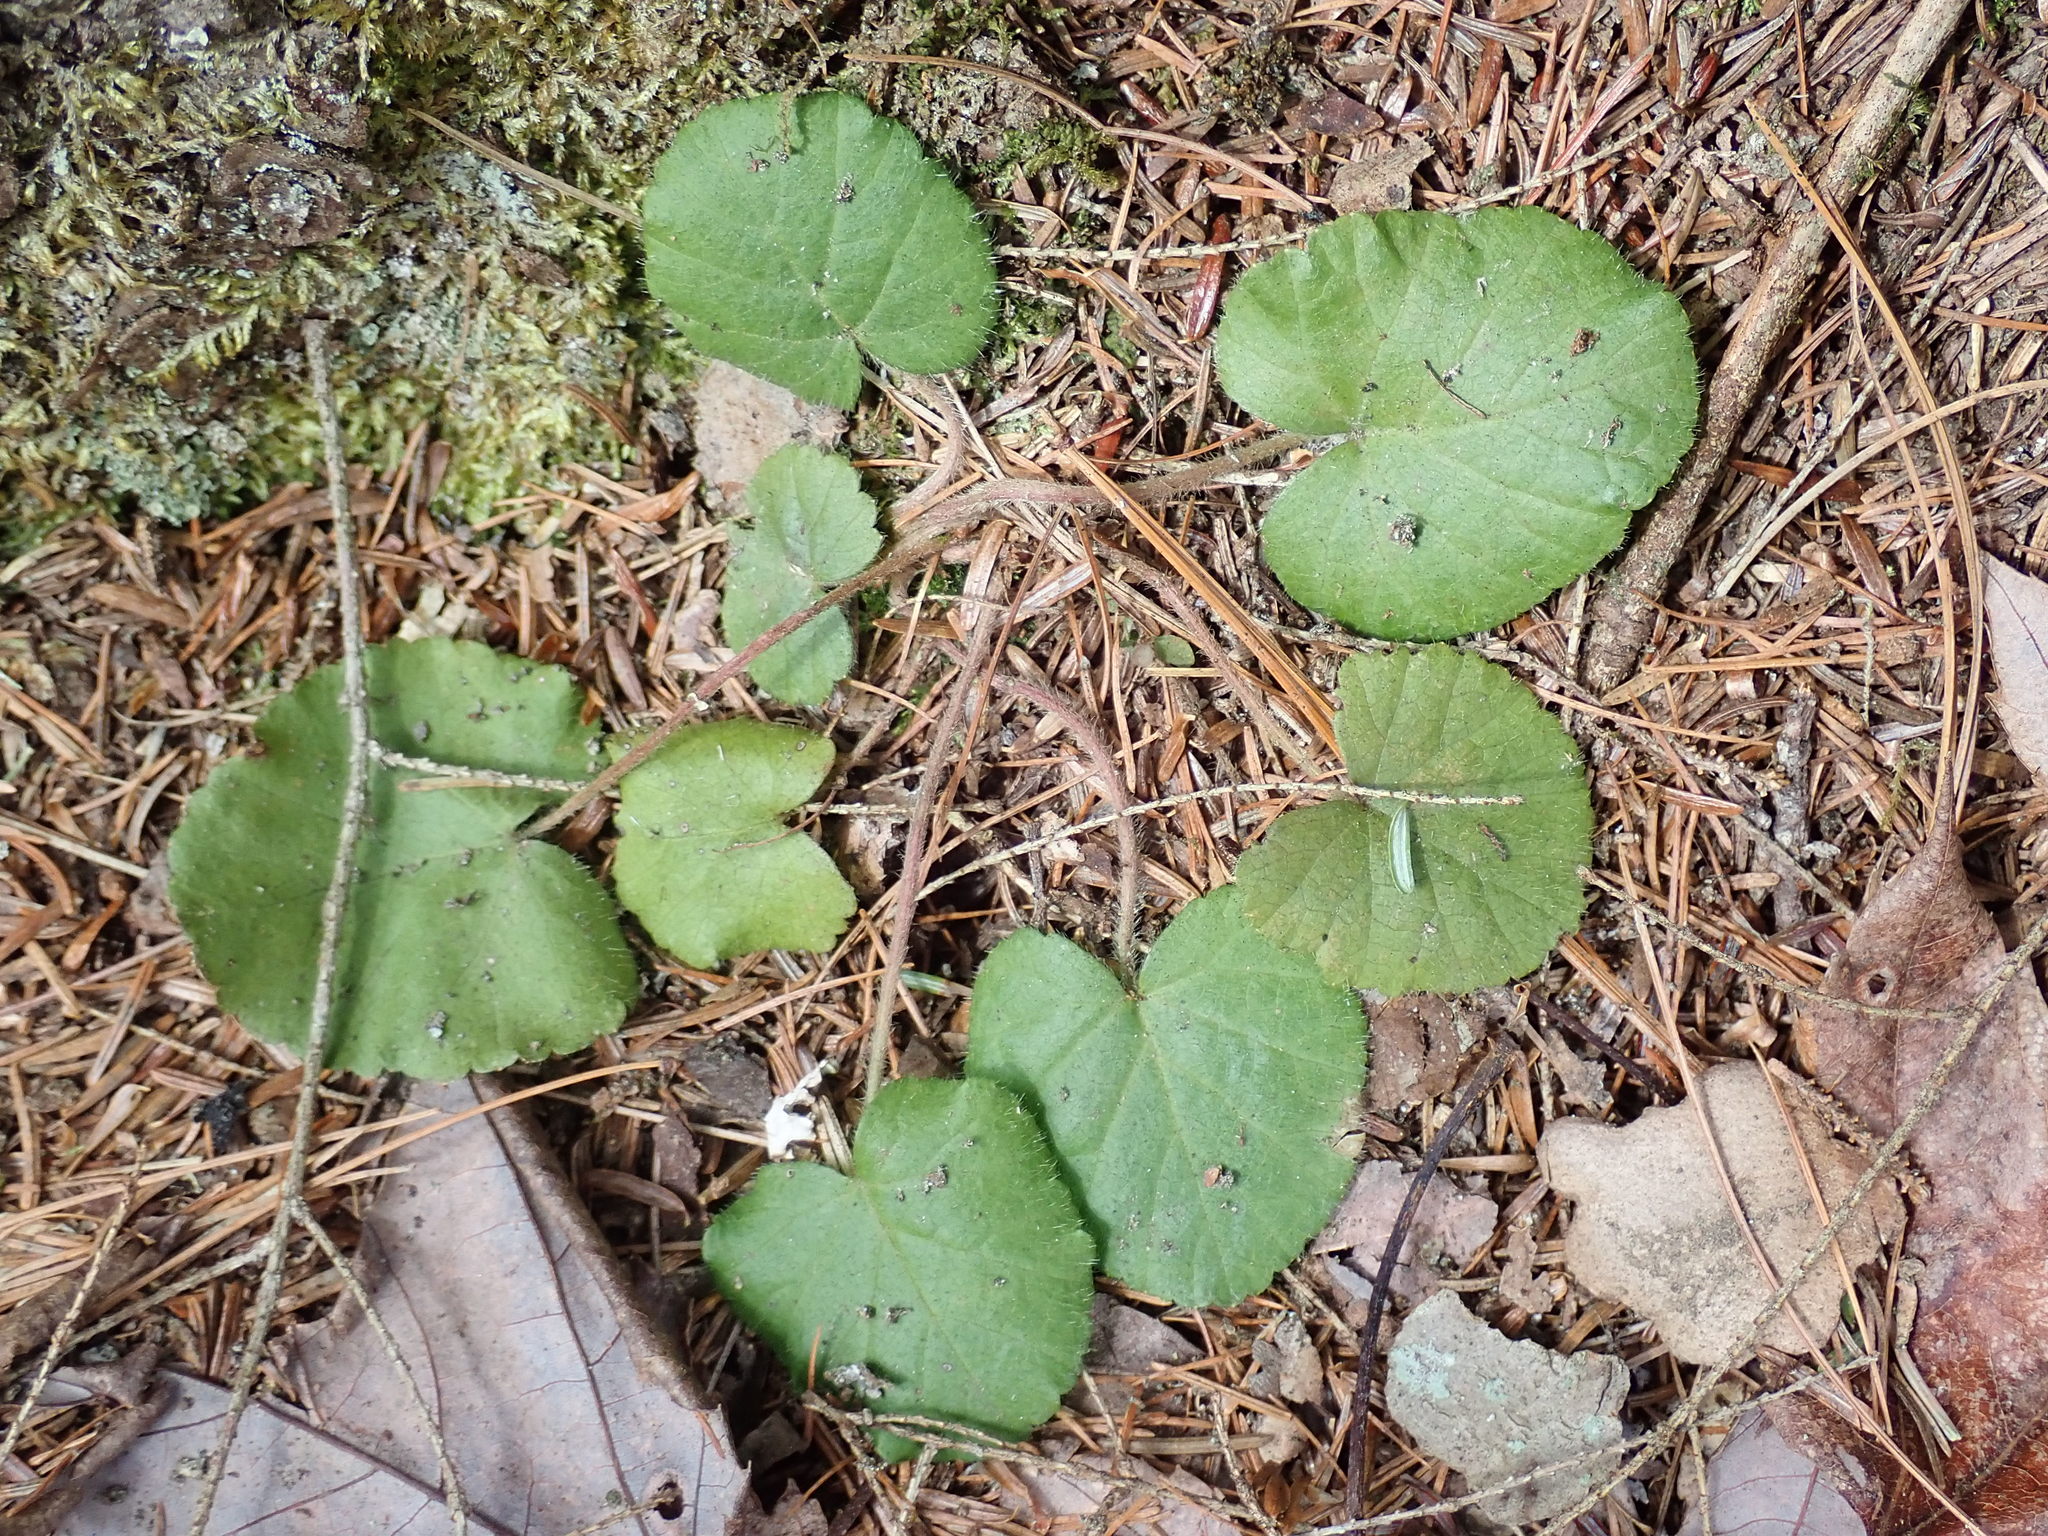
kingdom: Plantae
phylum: Tracheophyta
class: Magnoliopsida
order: Rosales
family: Rosaceae
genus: Dalibarda
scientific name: Dalibarda repens
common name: Dewdrop
